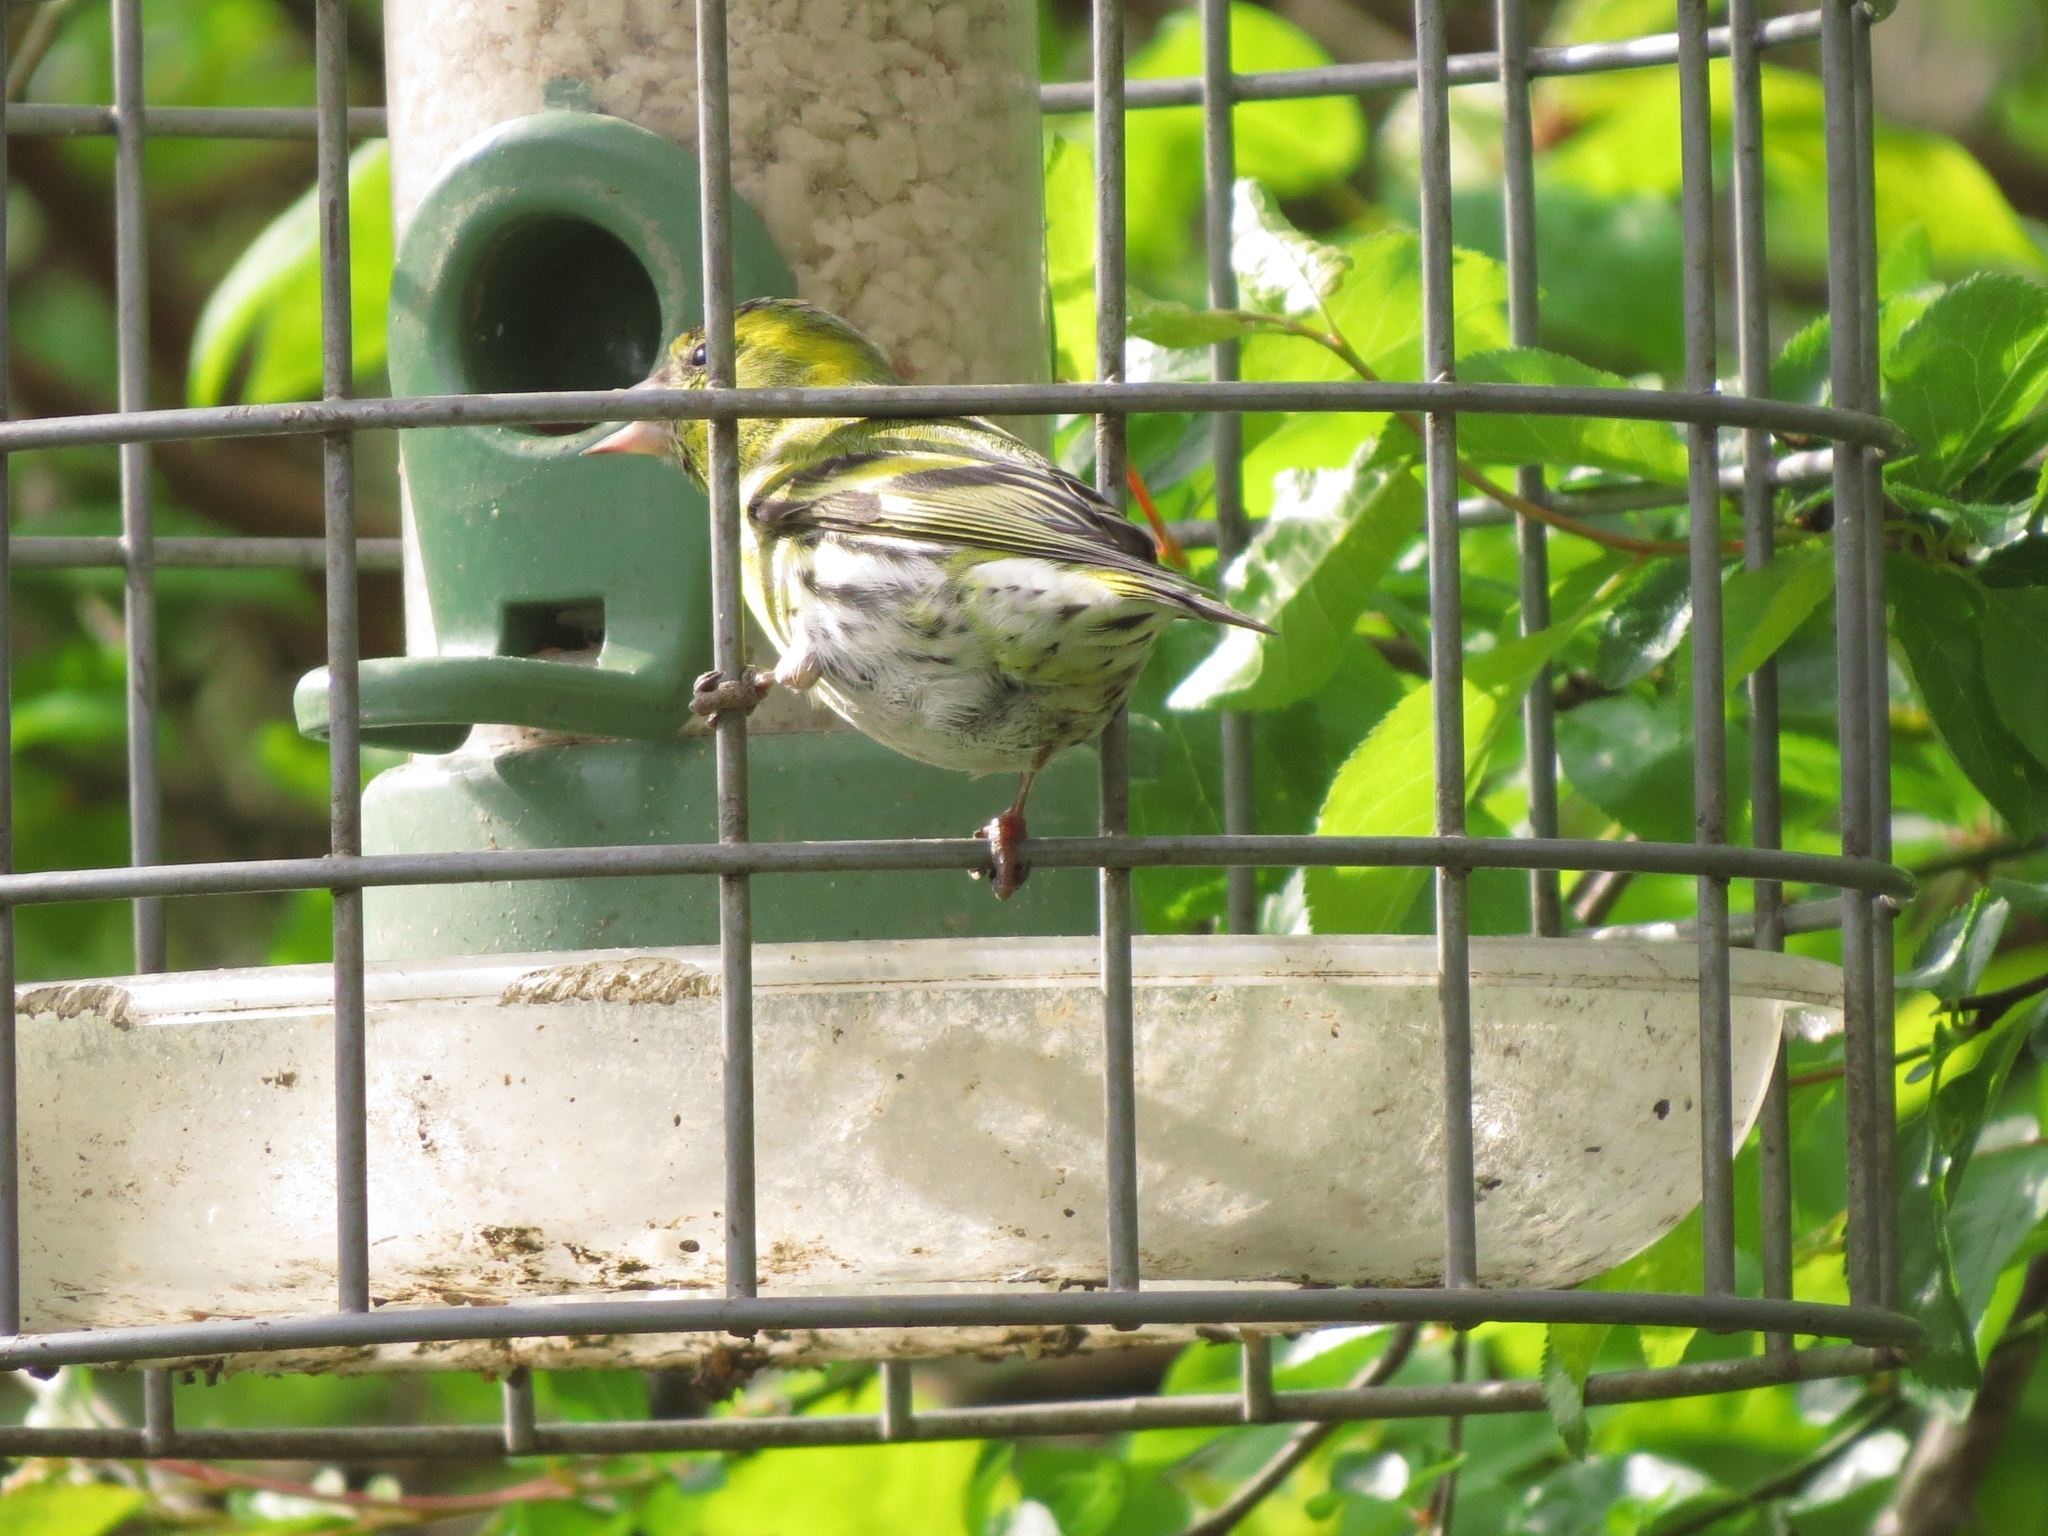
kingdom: Animalia
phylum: Chordata
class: Aves
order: Passeriformes
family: Fringillidae
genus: Spinus
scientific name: Spinus spinus
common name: Eurasian siskin
